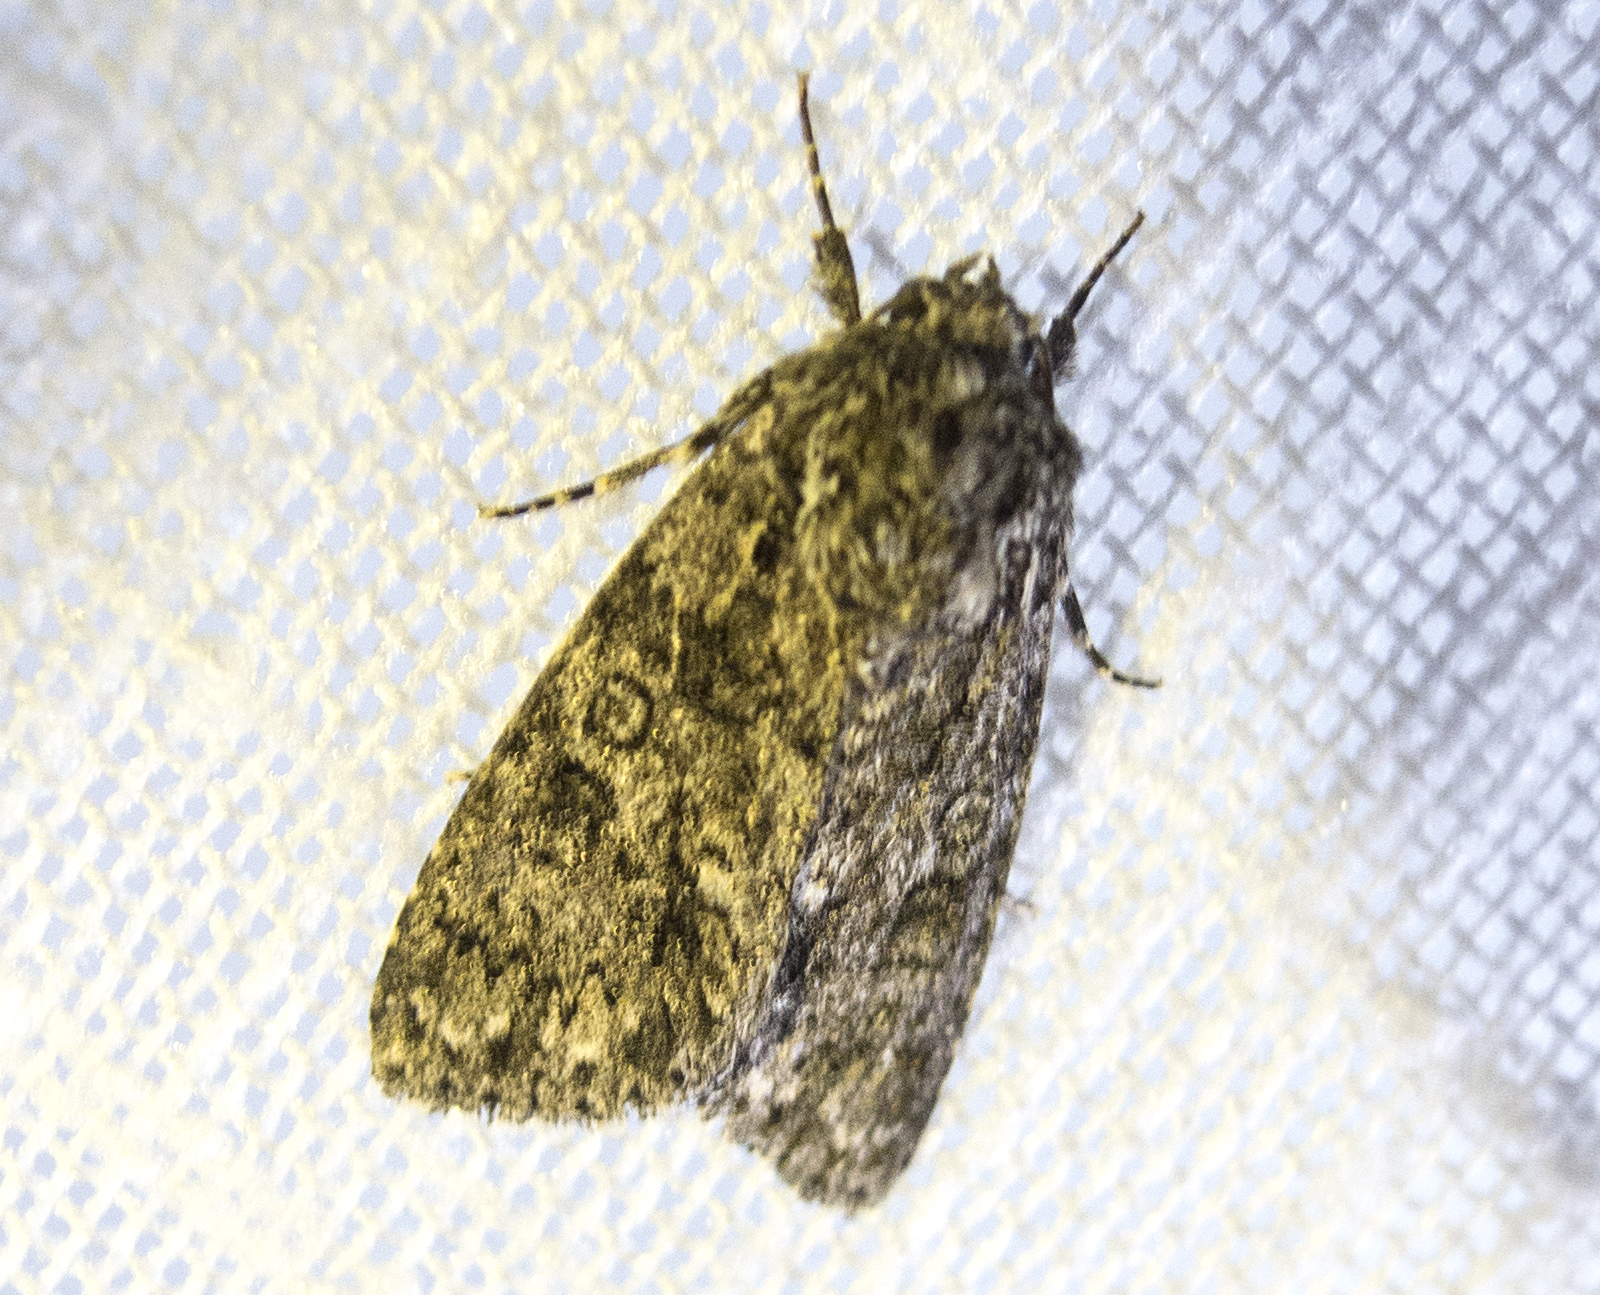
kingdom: Animalia
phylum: Arthropoda
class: Insecta
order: Lepidoptera
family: Noctuidae
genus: Acronicta
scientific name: Acronicta rumicis
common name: Knot grass
